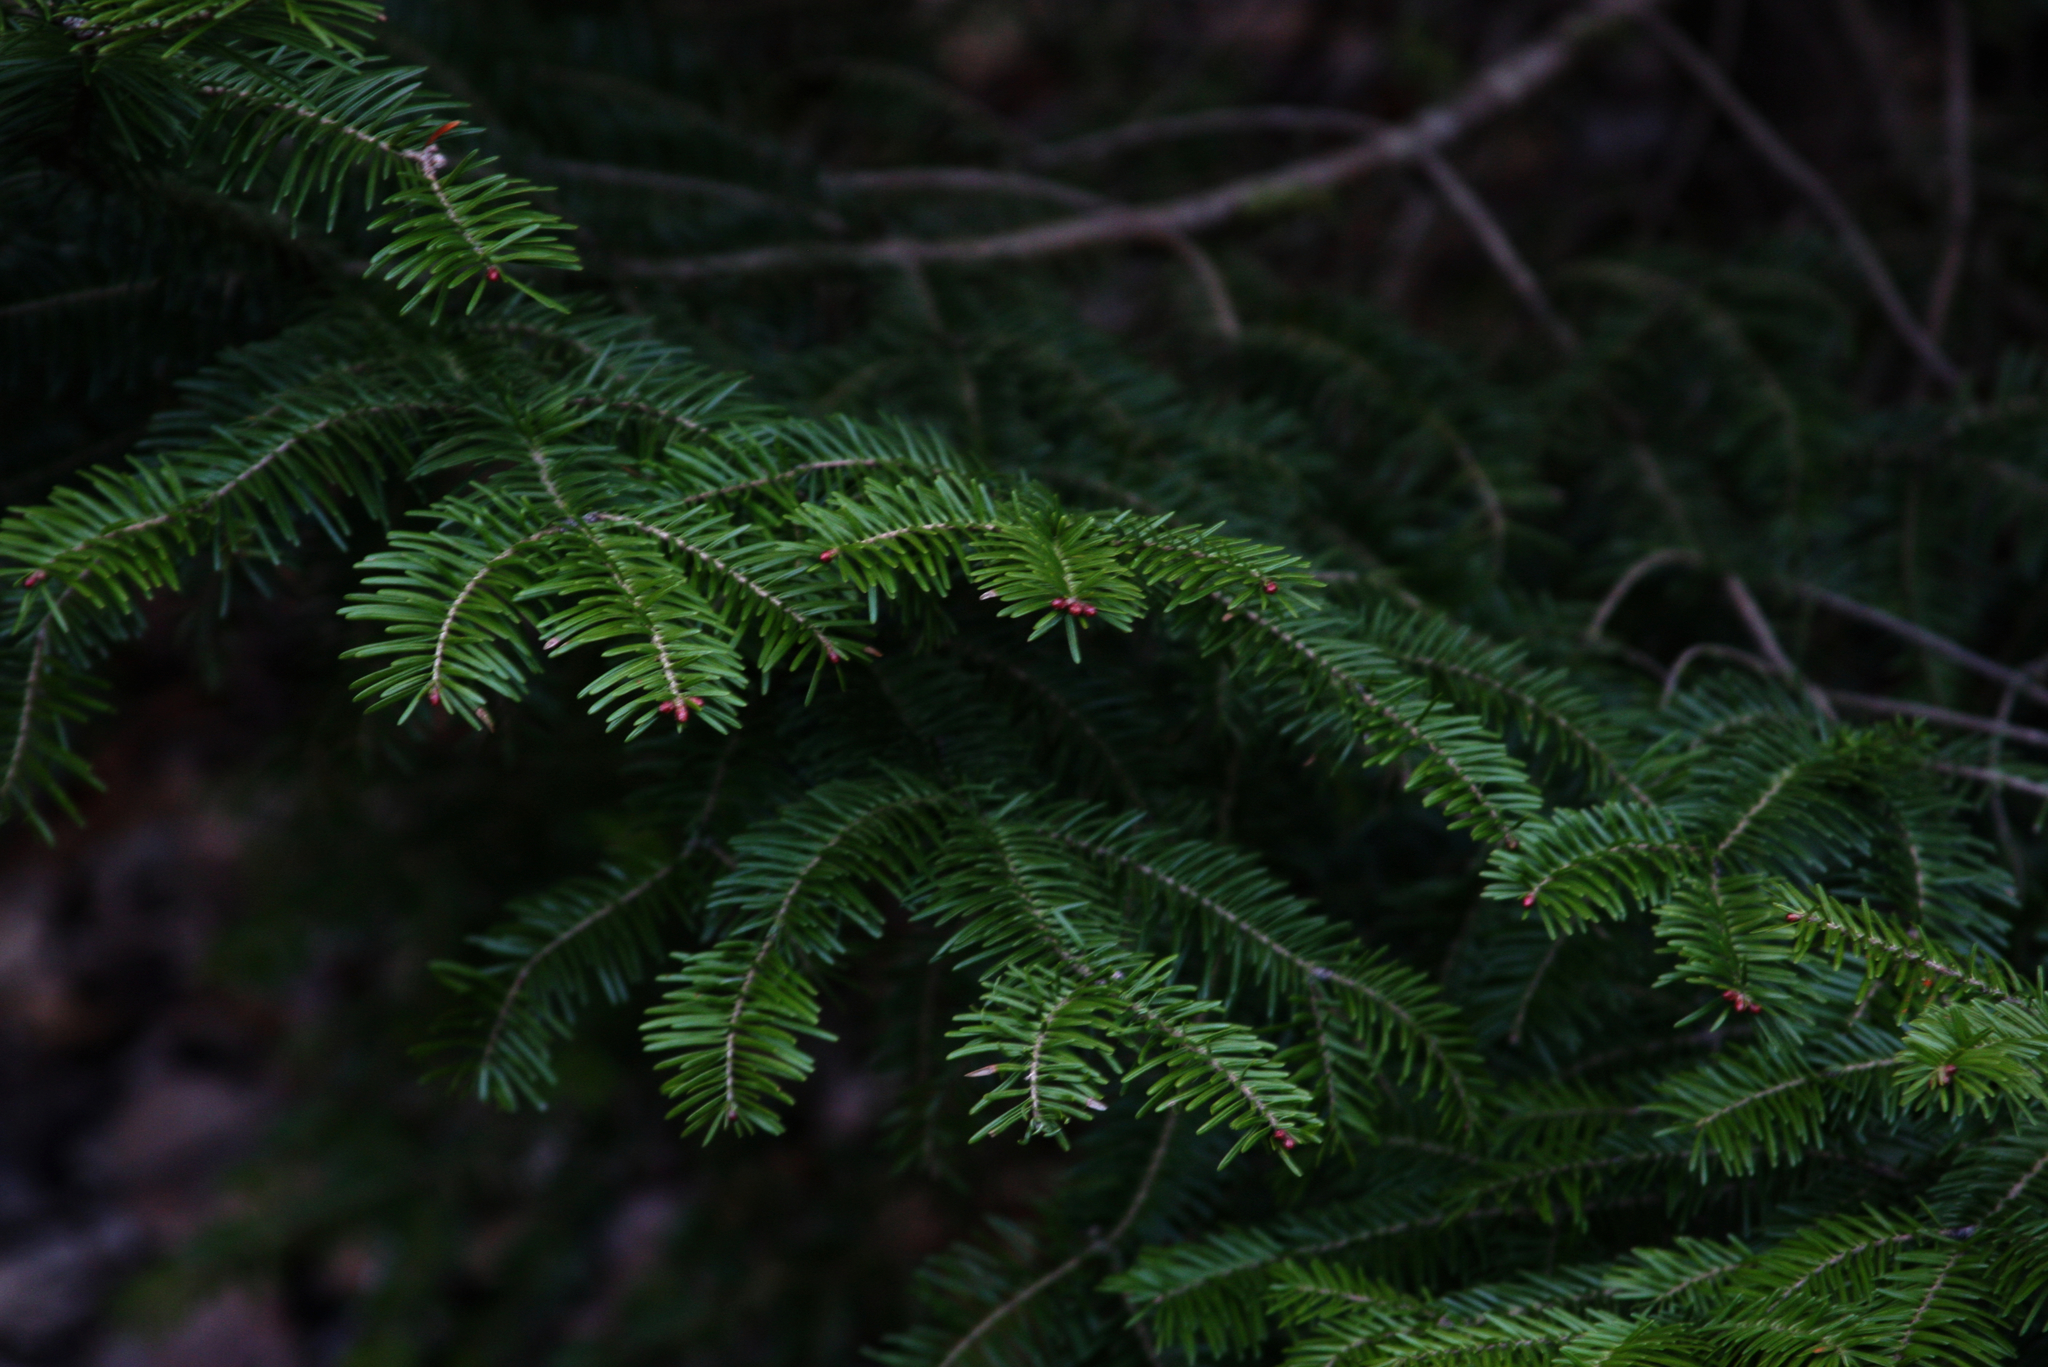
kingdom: Plantae
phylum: Tracheophyta
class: Pinopsida
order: Pinales
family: Pinaceae
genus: Abies
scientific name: Abies balsamea
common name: Balsam fir
